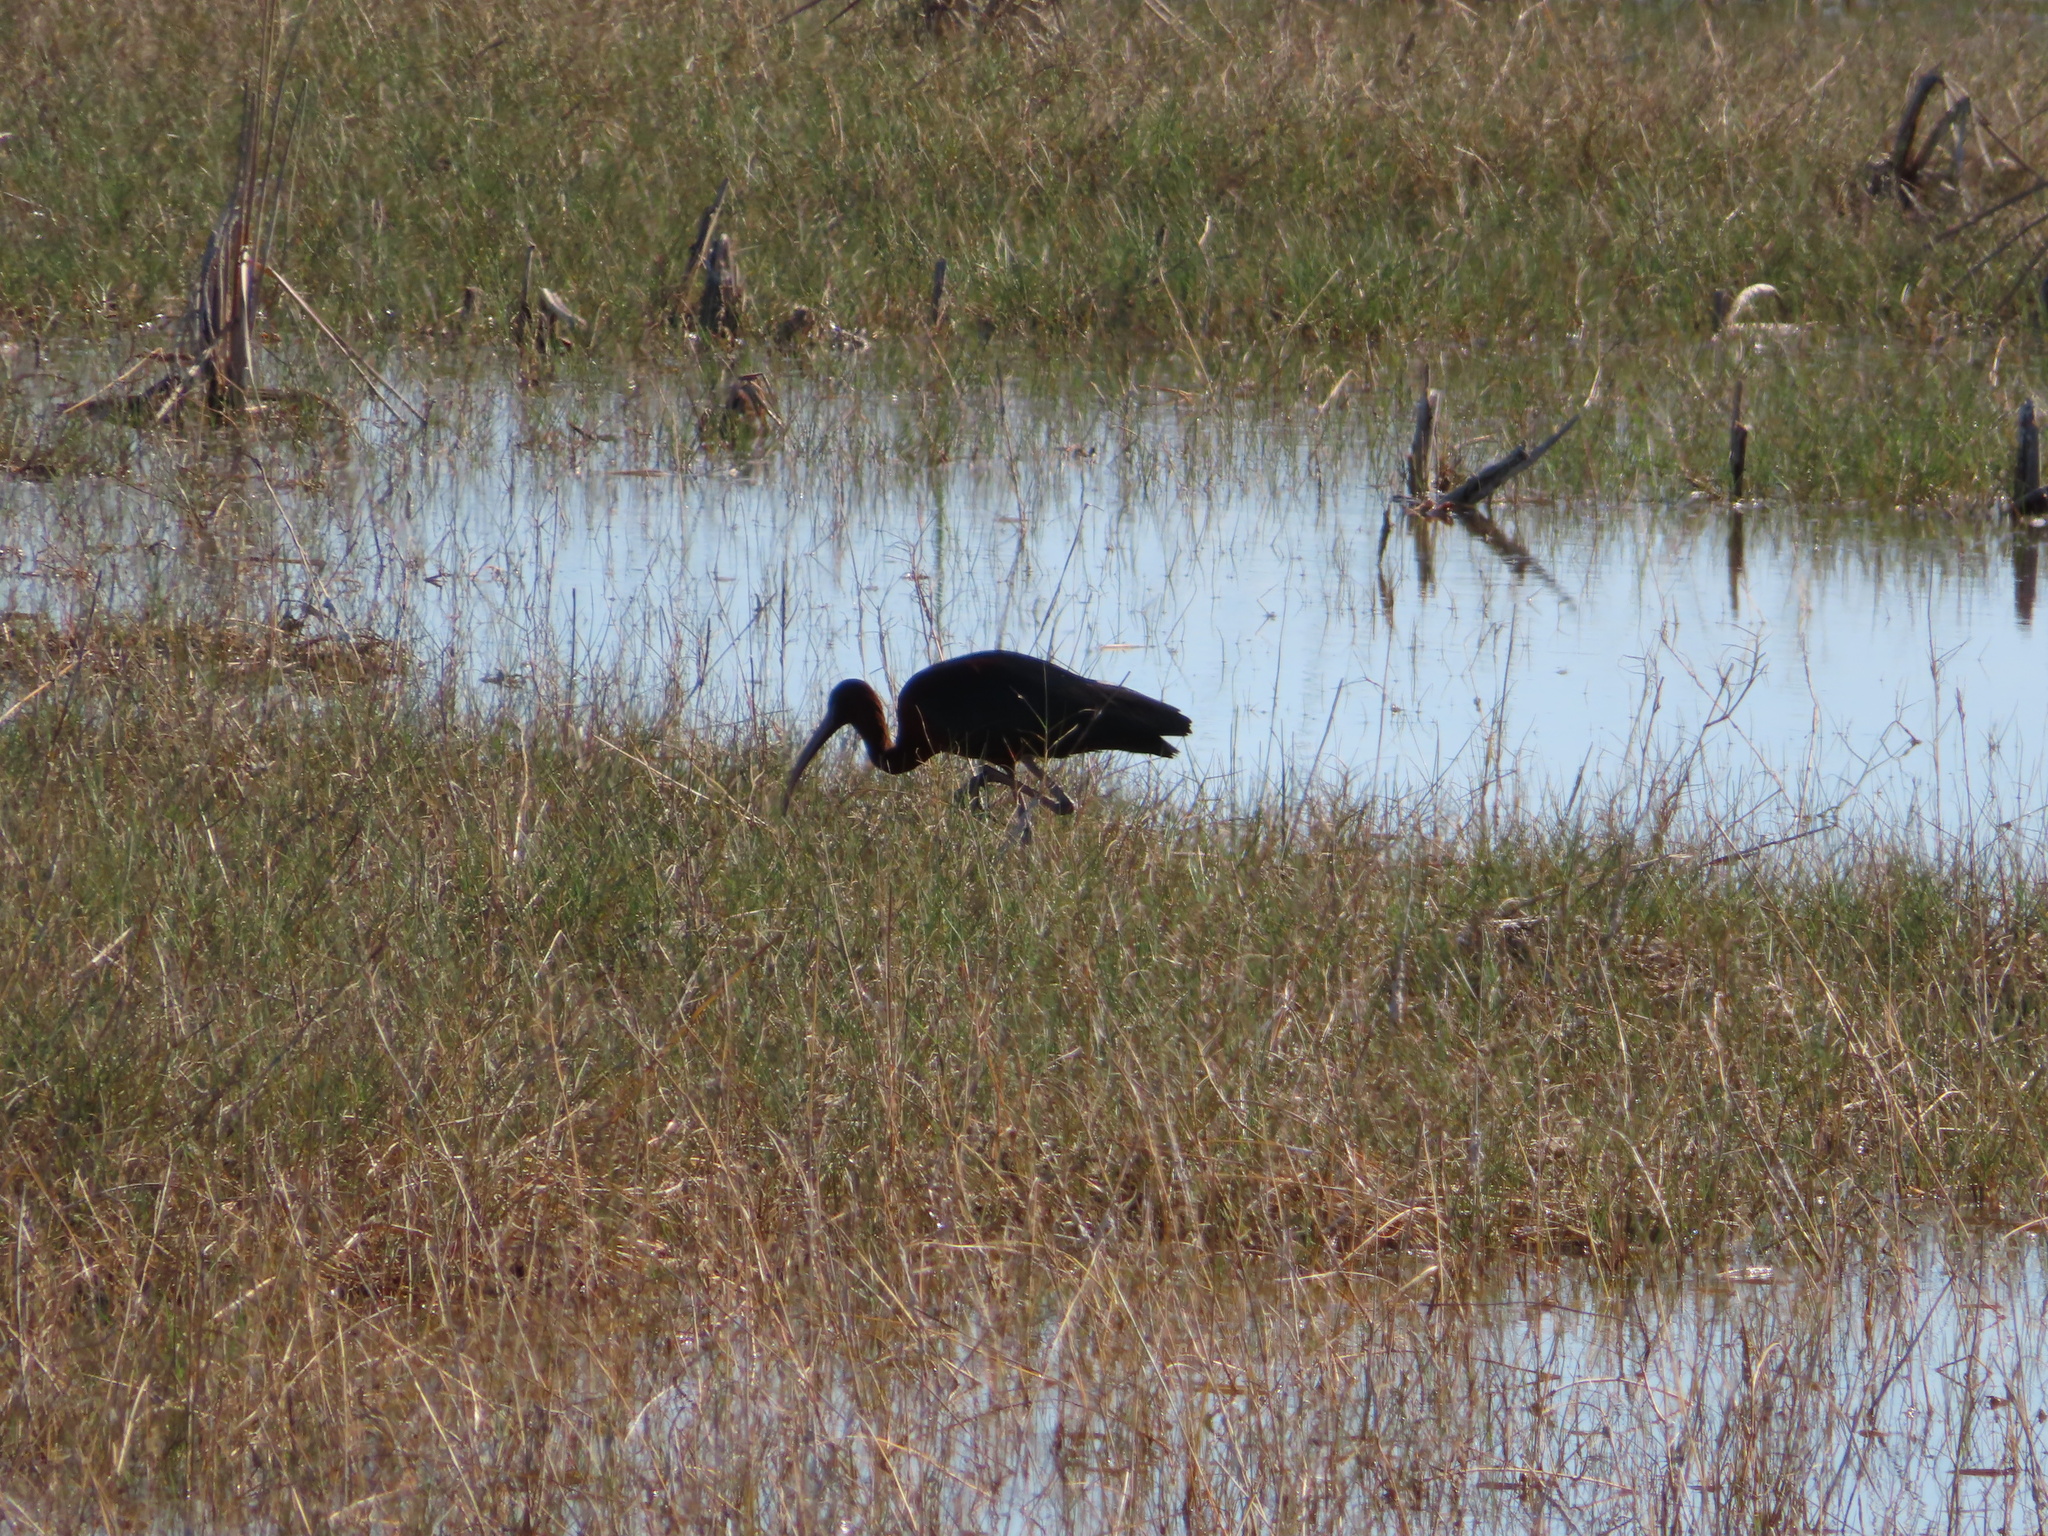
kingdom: Animalia
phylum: Chordata
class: Aves
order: Pelecaniformes
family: Threskiornithidae
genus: Plegadis
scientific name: Plegadis falcinellus
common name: Glossy ibis
